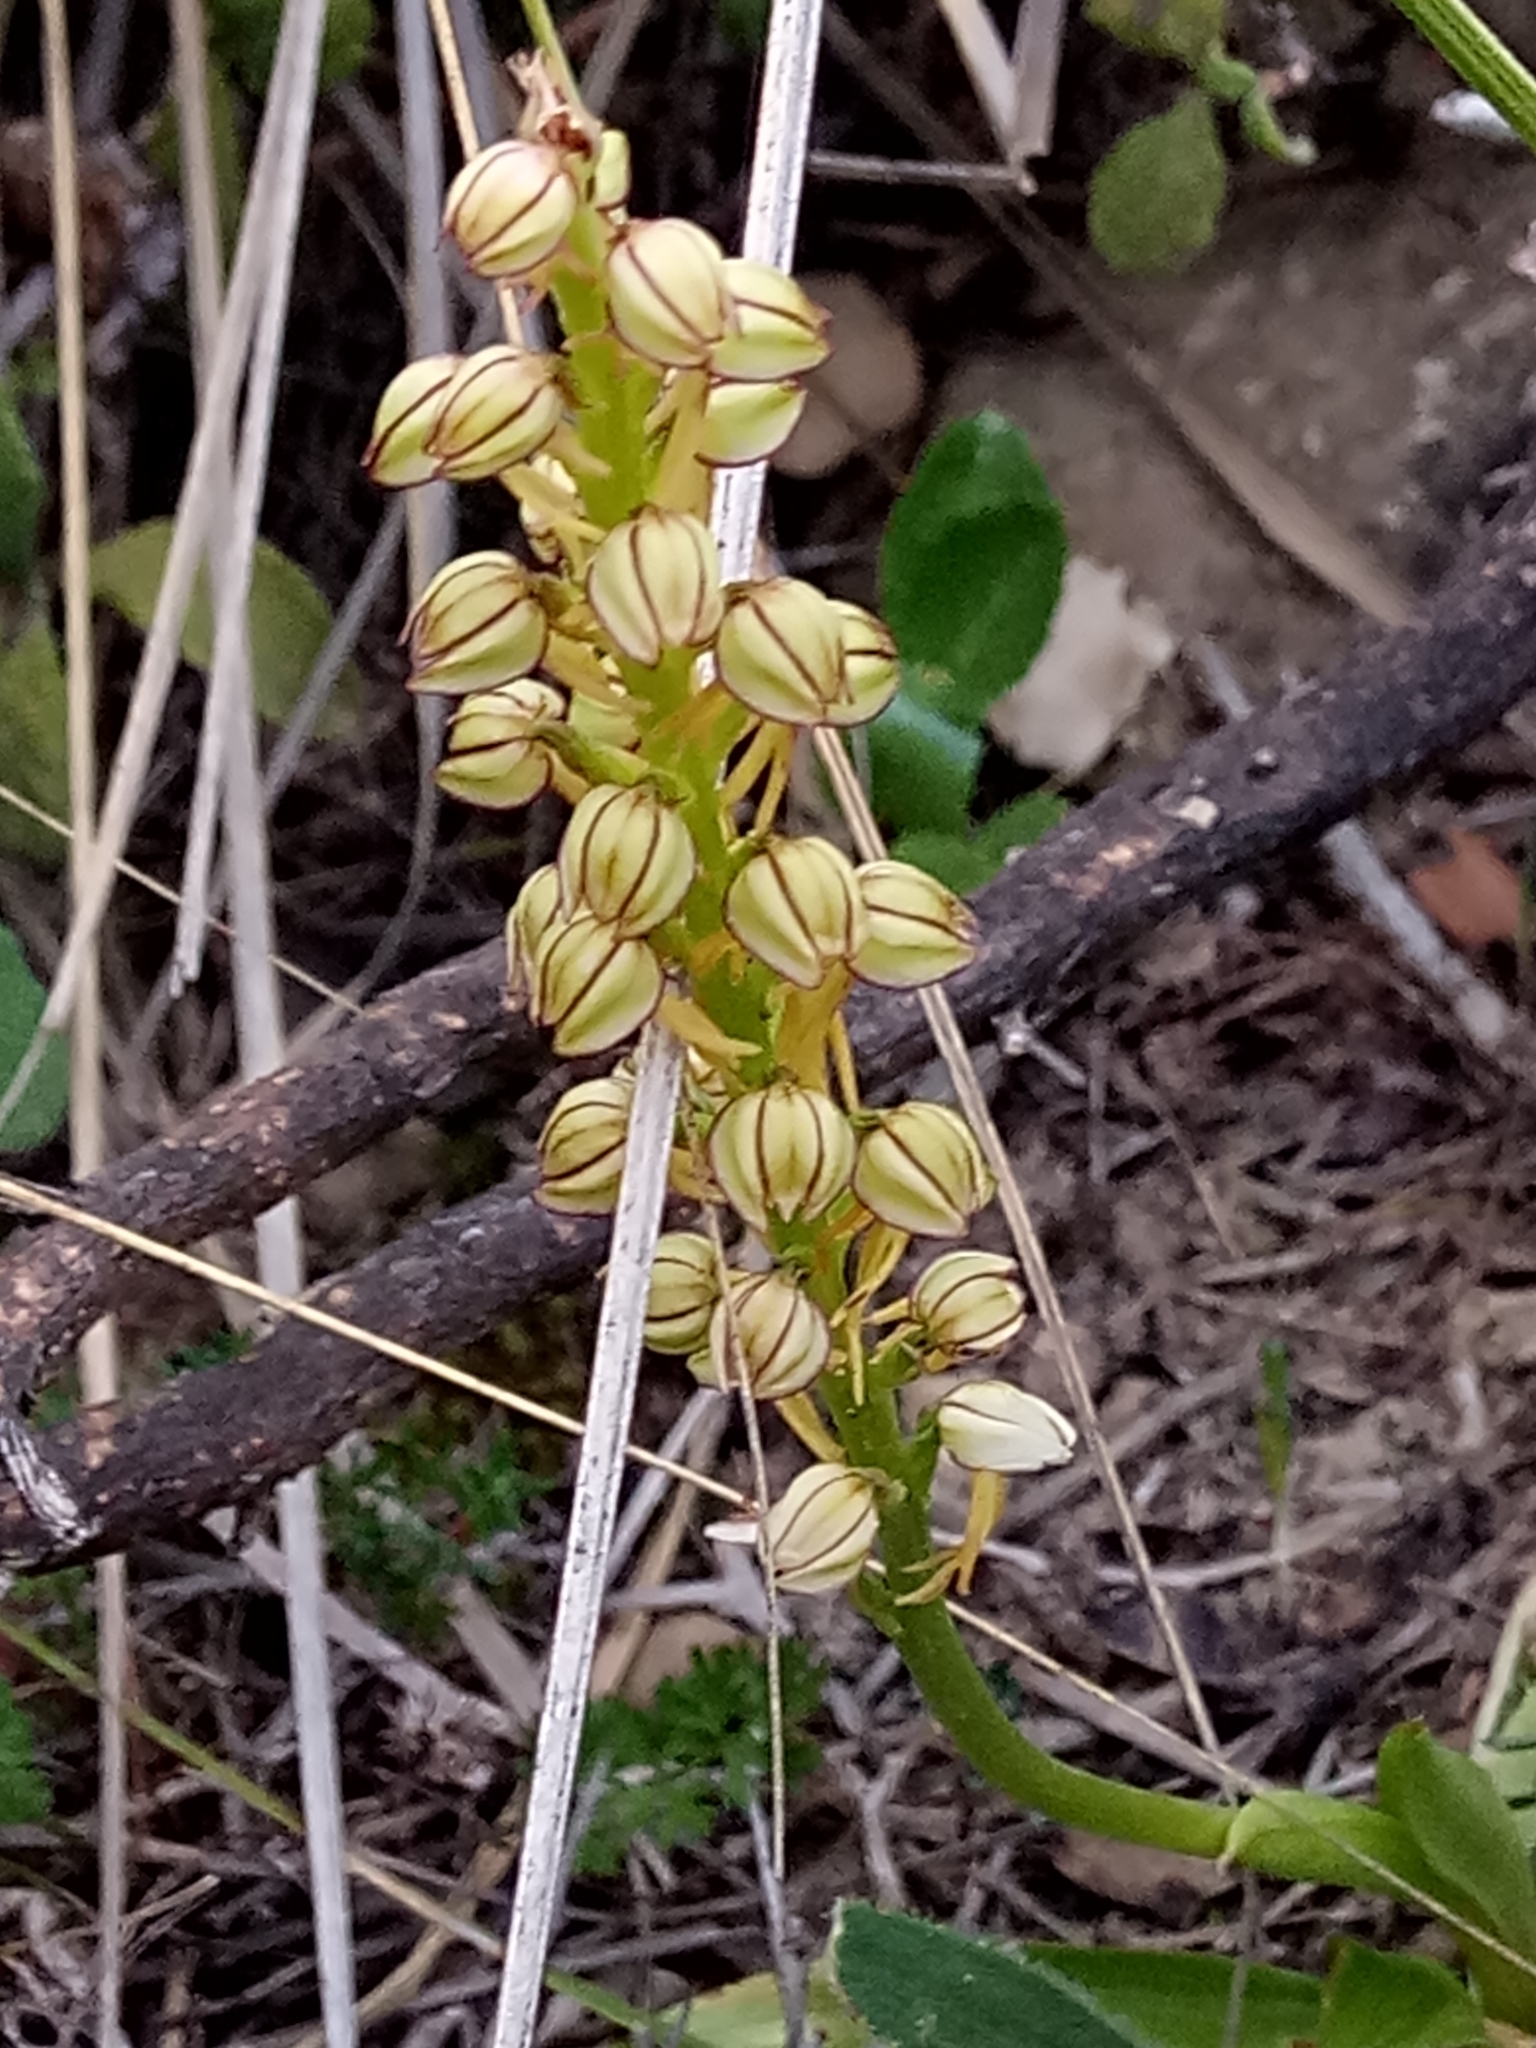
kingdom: Plantae
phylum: Tracheophyta
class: Liliopsida
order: Asparagales
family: Orchidaceae
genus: Orchis
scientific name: Orchis anthropophora
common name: Man orchid
